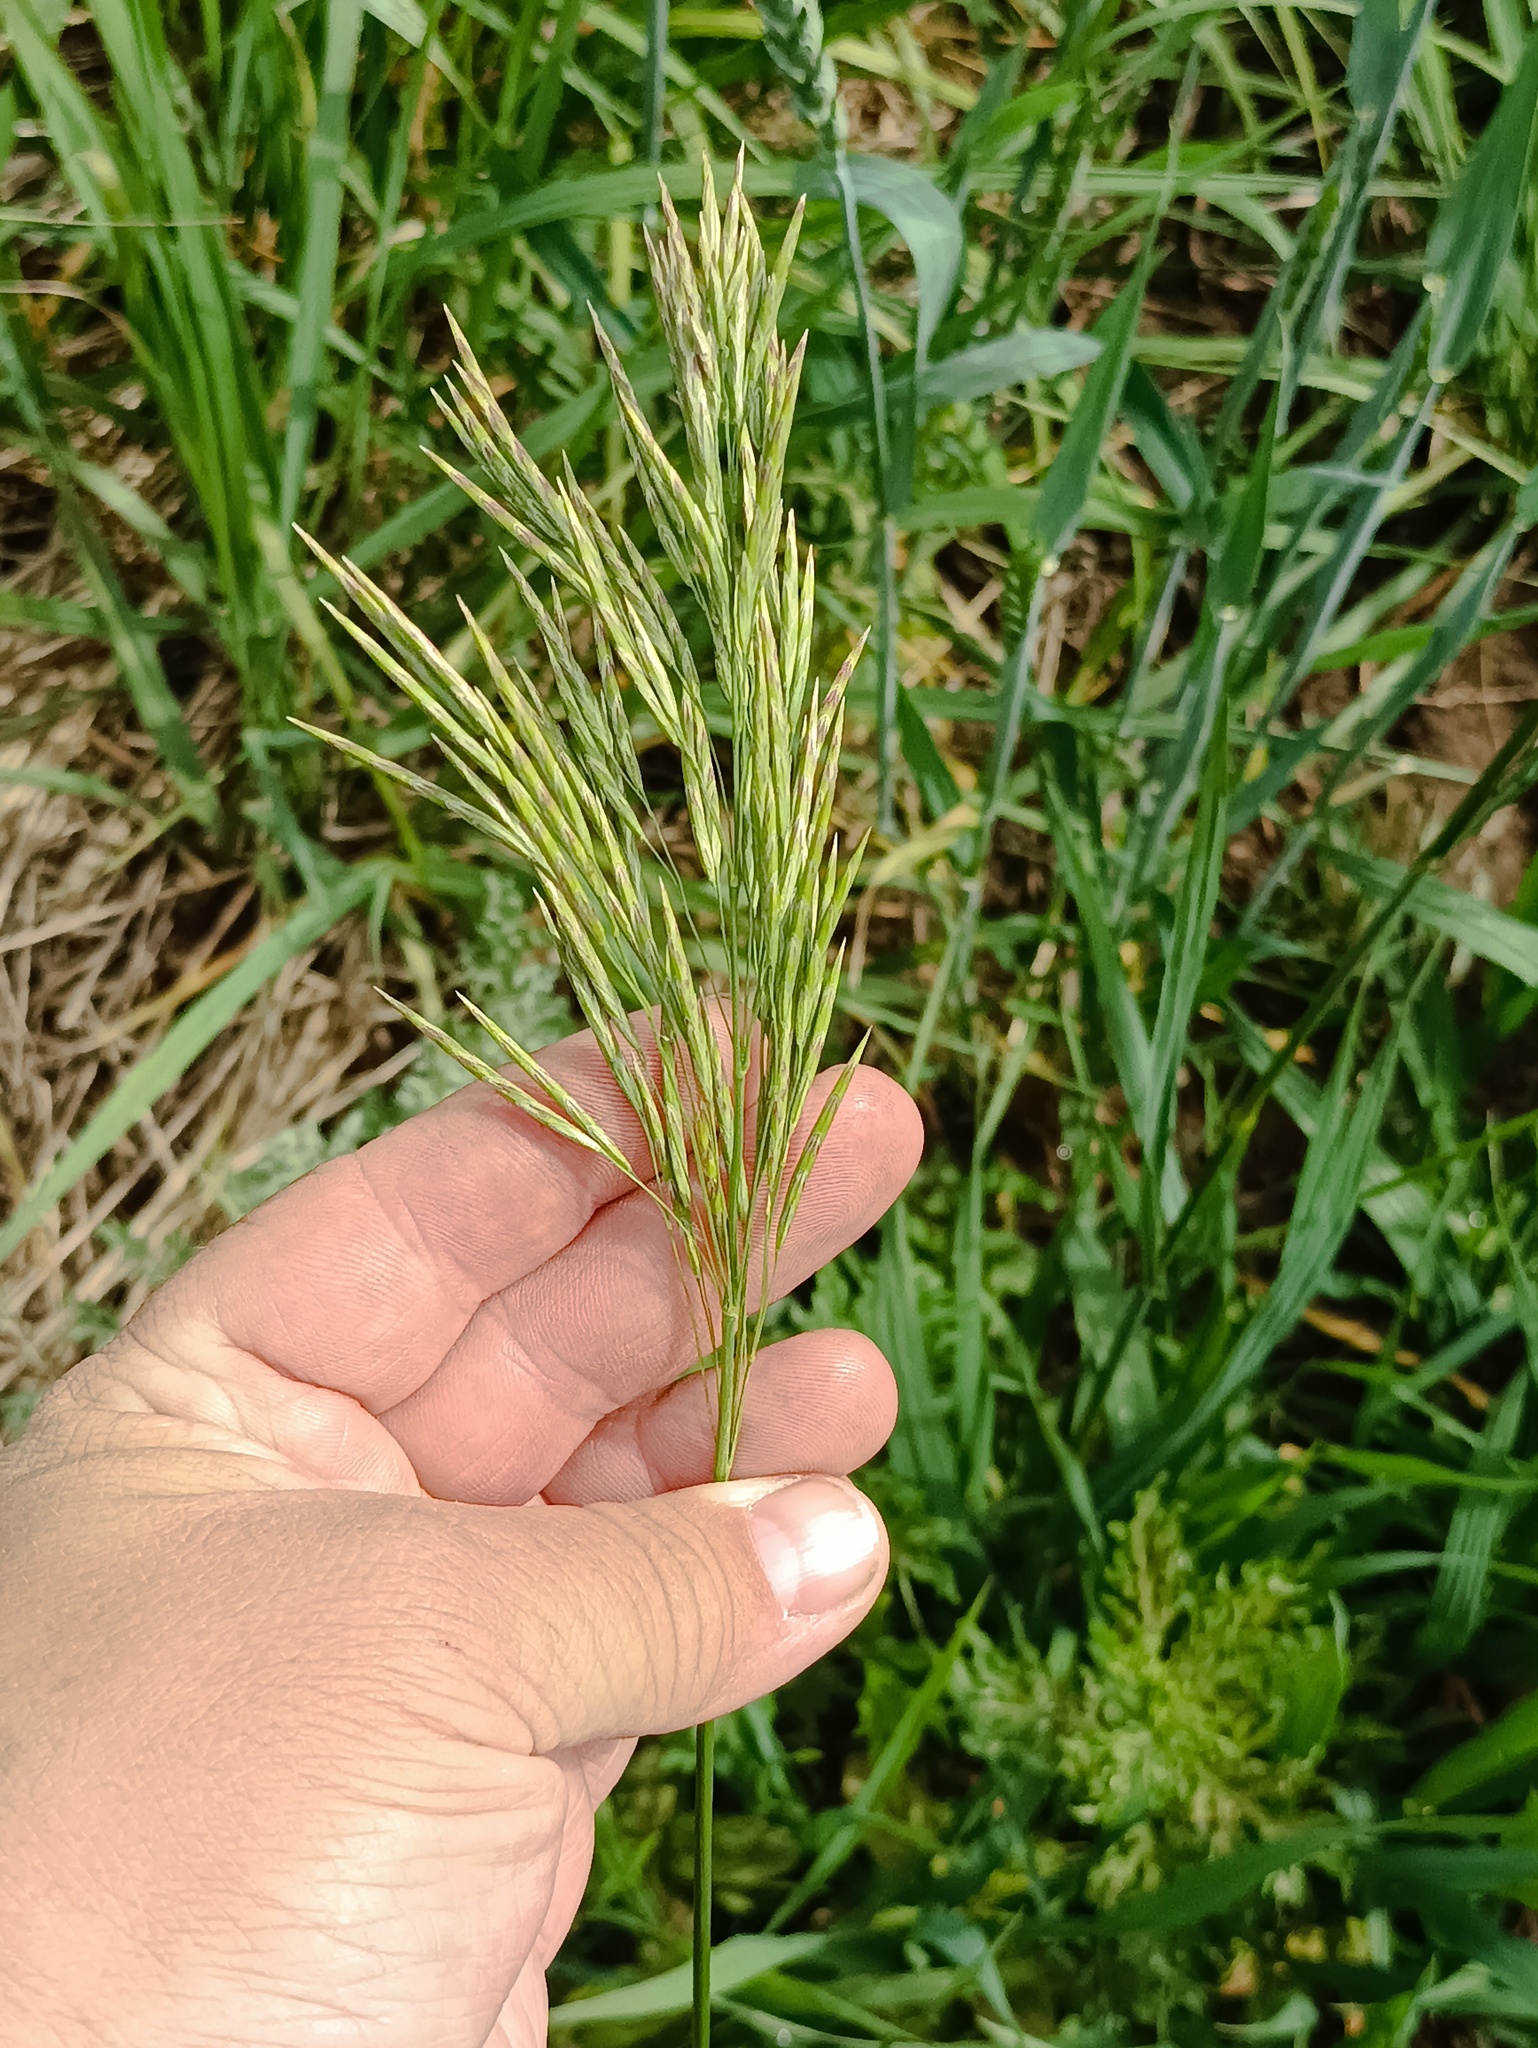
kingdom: Plantae
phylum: Tracheophyta
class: Liliopsida
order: Poales
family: Poaceae
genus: Bromus
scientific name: Bromus inermis
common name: Smooth brome
